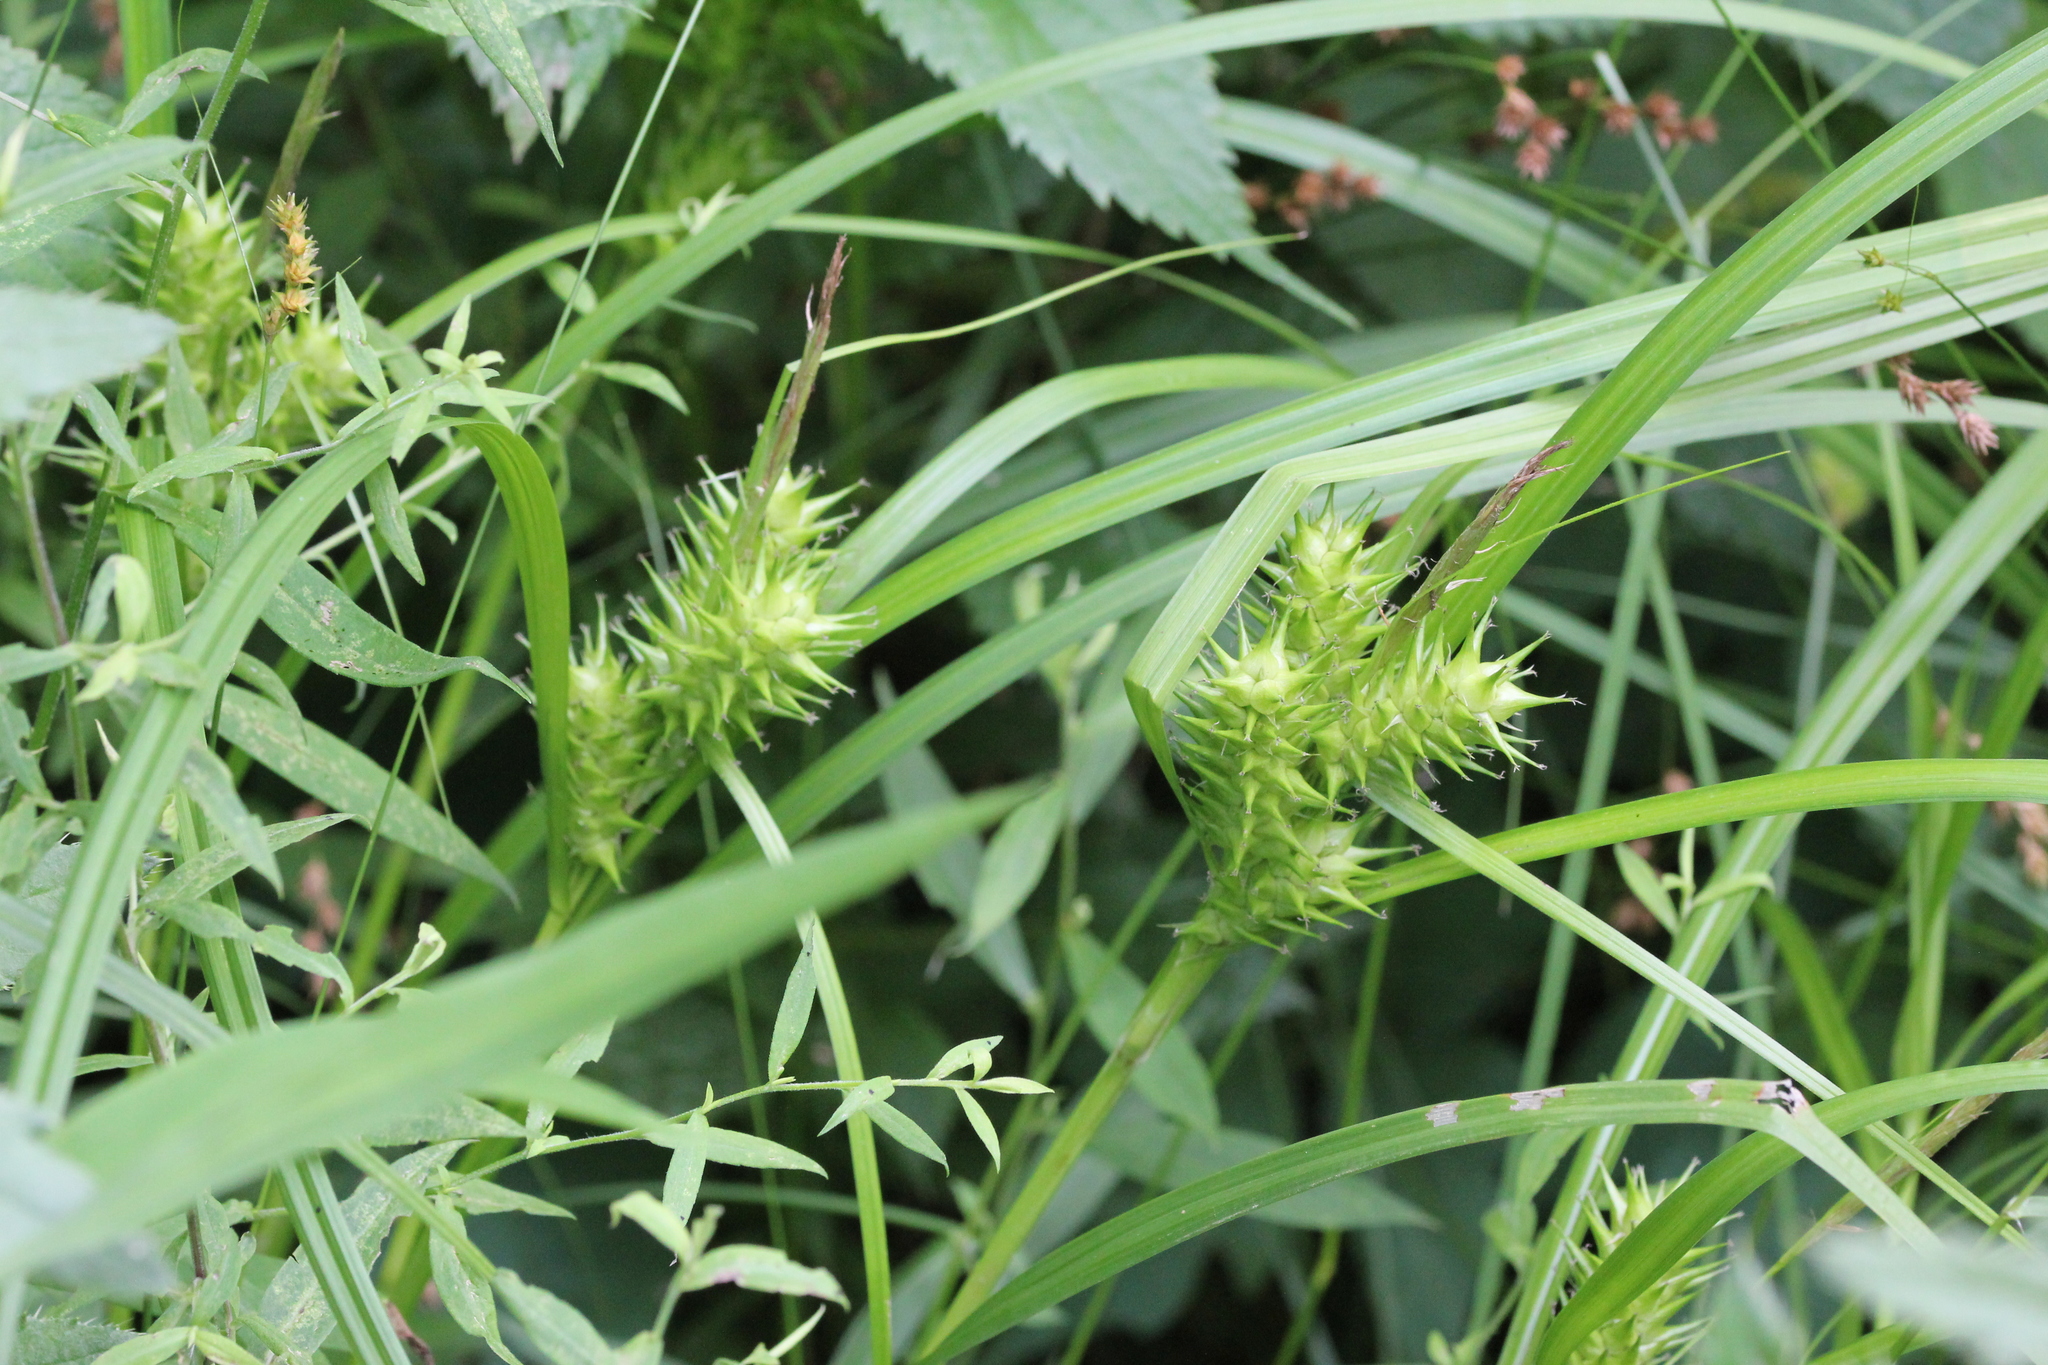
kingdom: Plantae
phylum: Tracheophyta
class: Liliopsida
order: Poales
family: Cyperaceae
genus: Carex
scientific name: Carex lupulina
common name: Hop sedge
